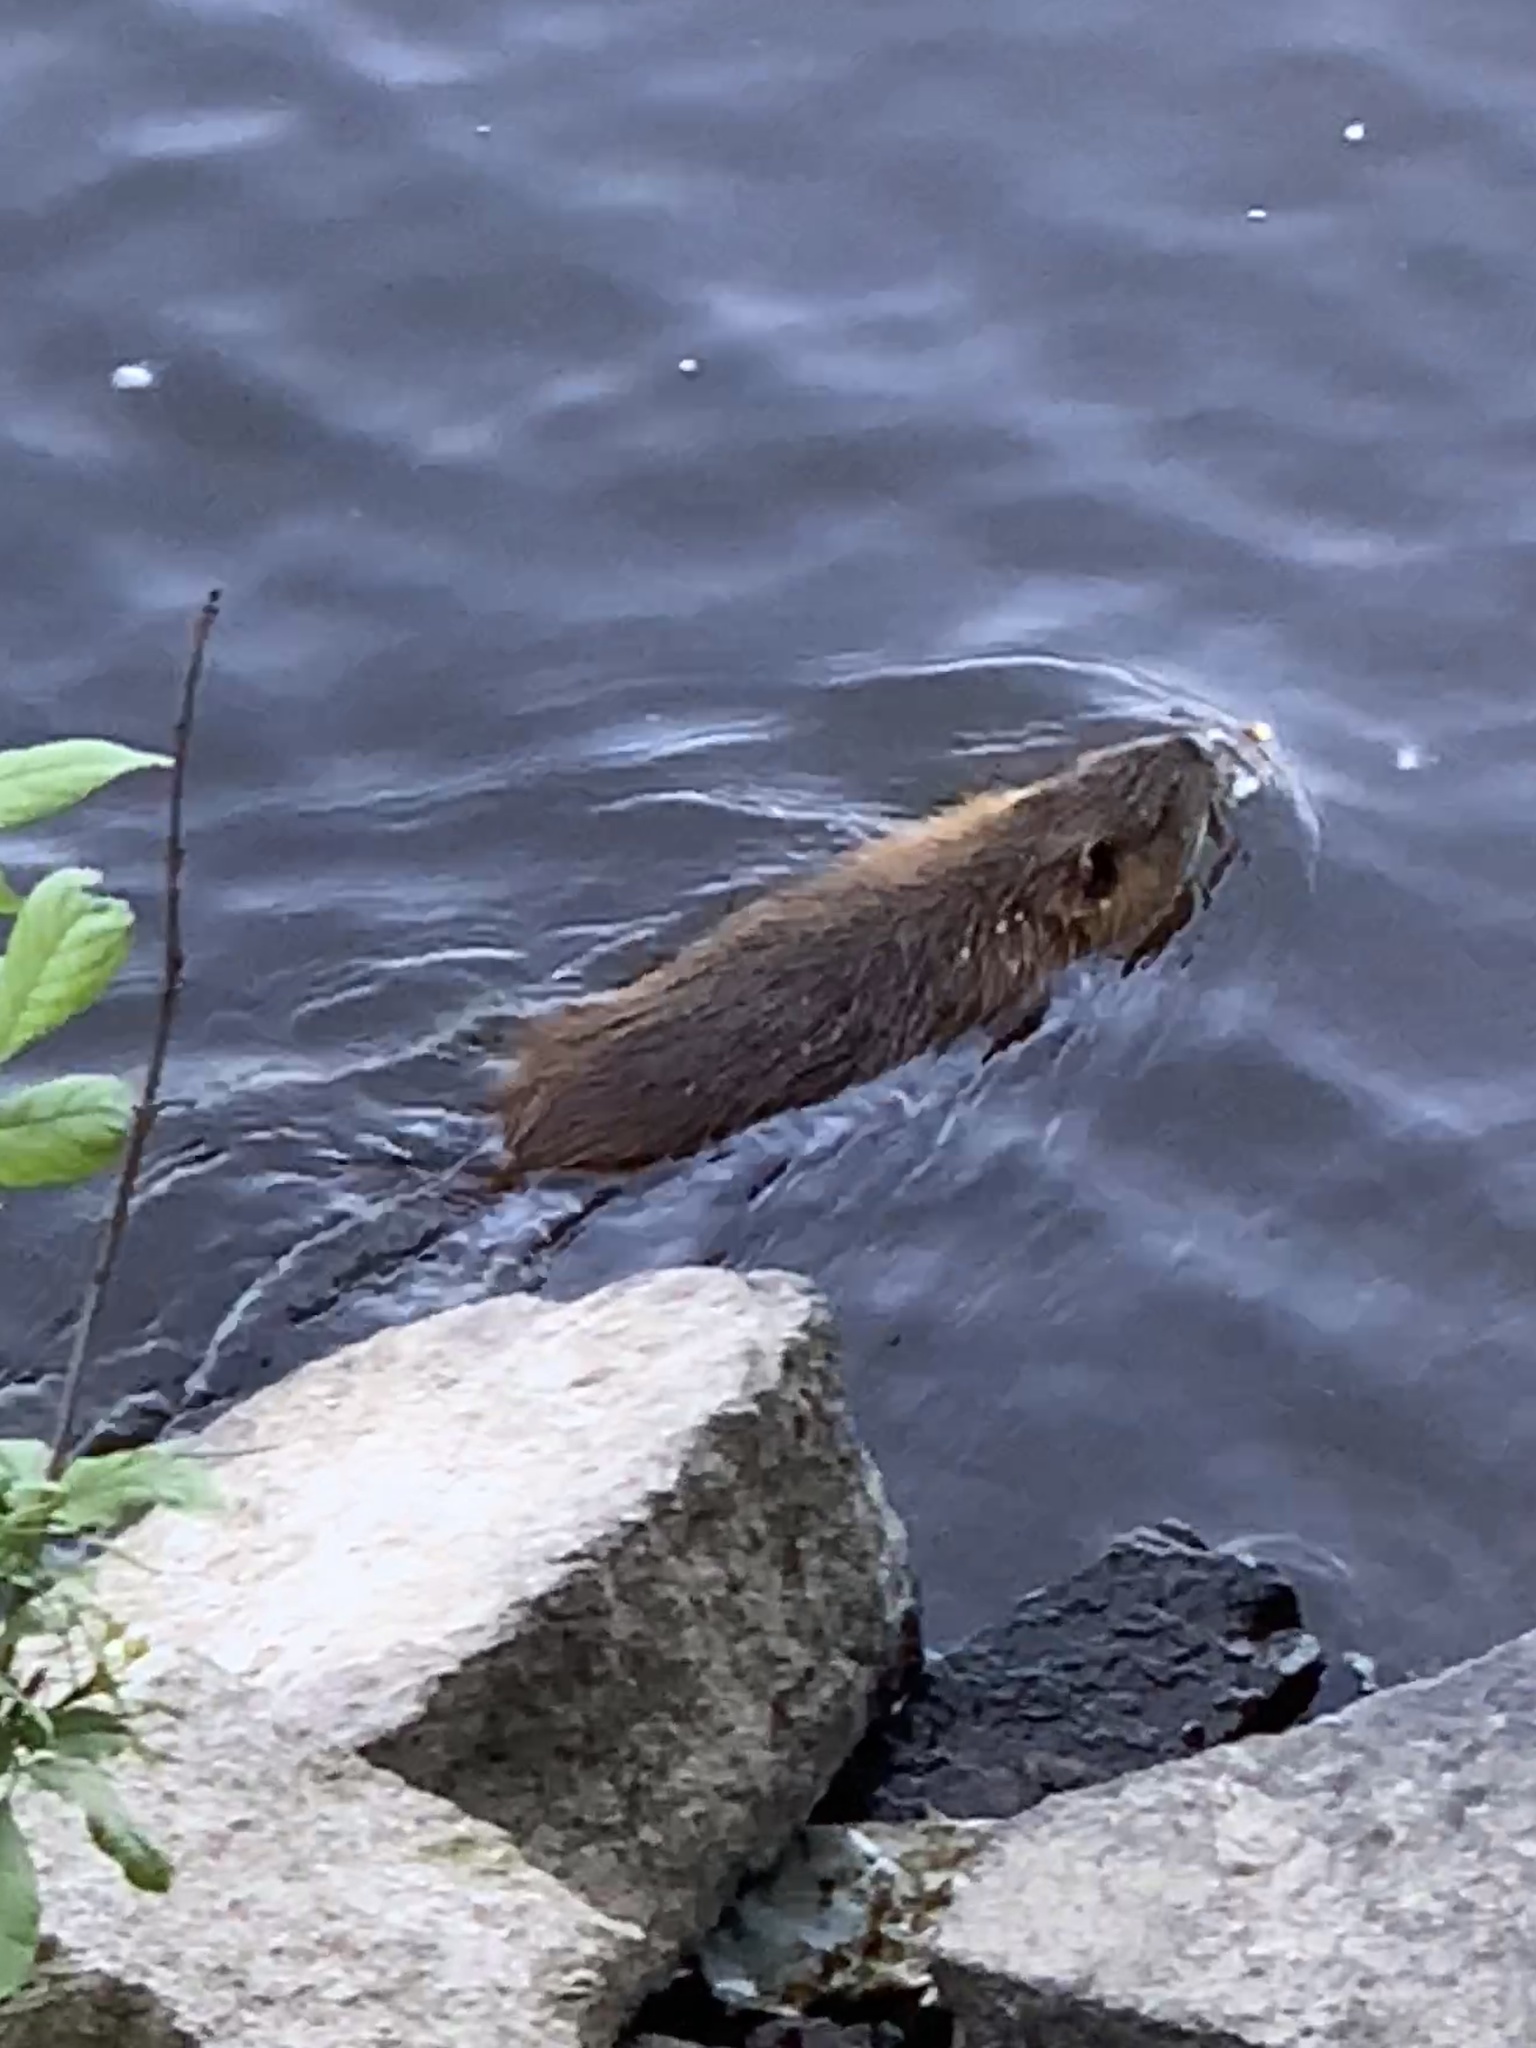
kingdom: Animalia
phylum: Chordata
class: Mammalia
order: Rodentia
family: Myocastoridae
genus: Myocastor
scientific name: Myocastor coypus
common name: Coypu
